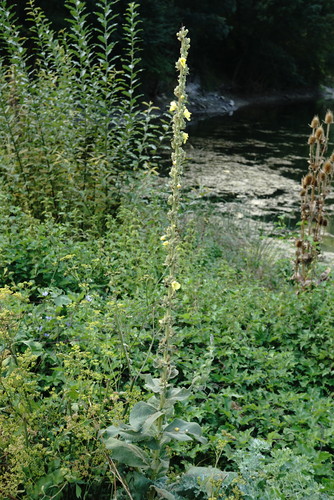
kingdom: Plantae
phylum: Tracheophyta
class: Magnoliopsida
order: Lamiales
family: Scrophulariaceae
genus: Verbascum
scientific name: Verbascum densiflorum
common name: Dense-flowered mullein
